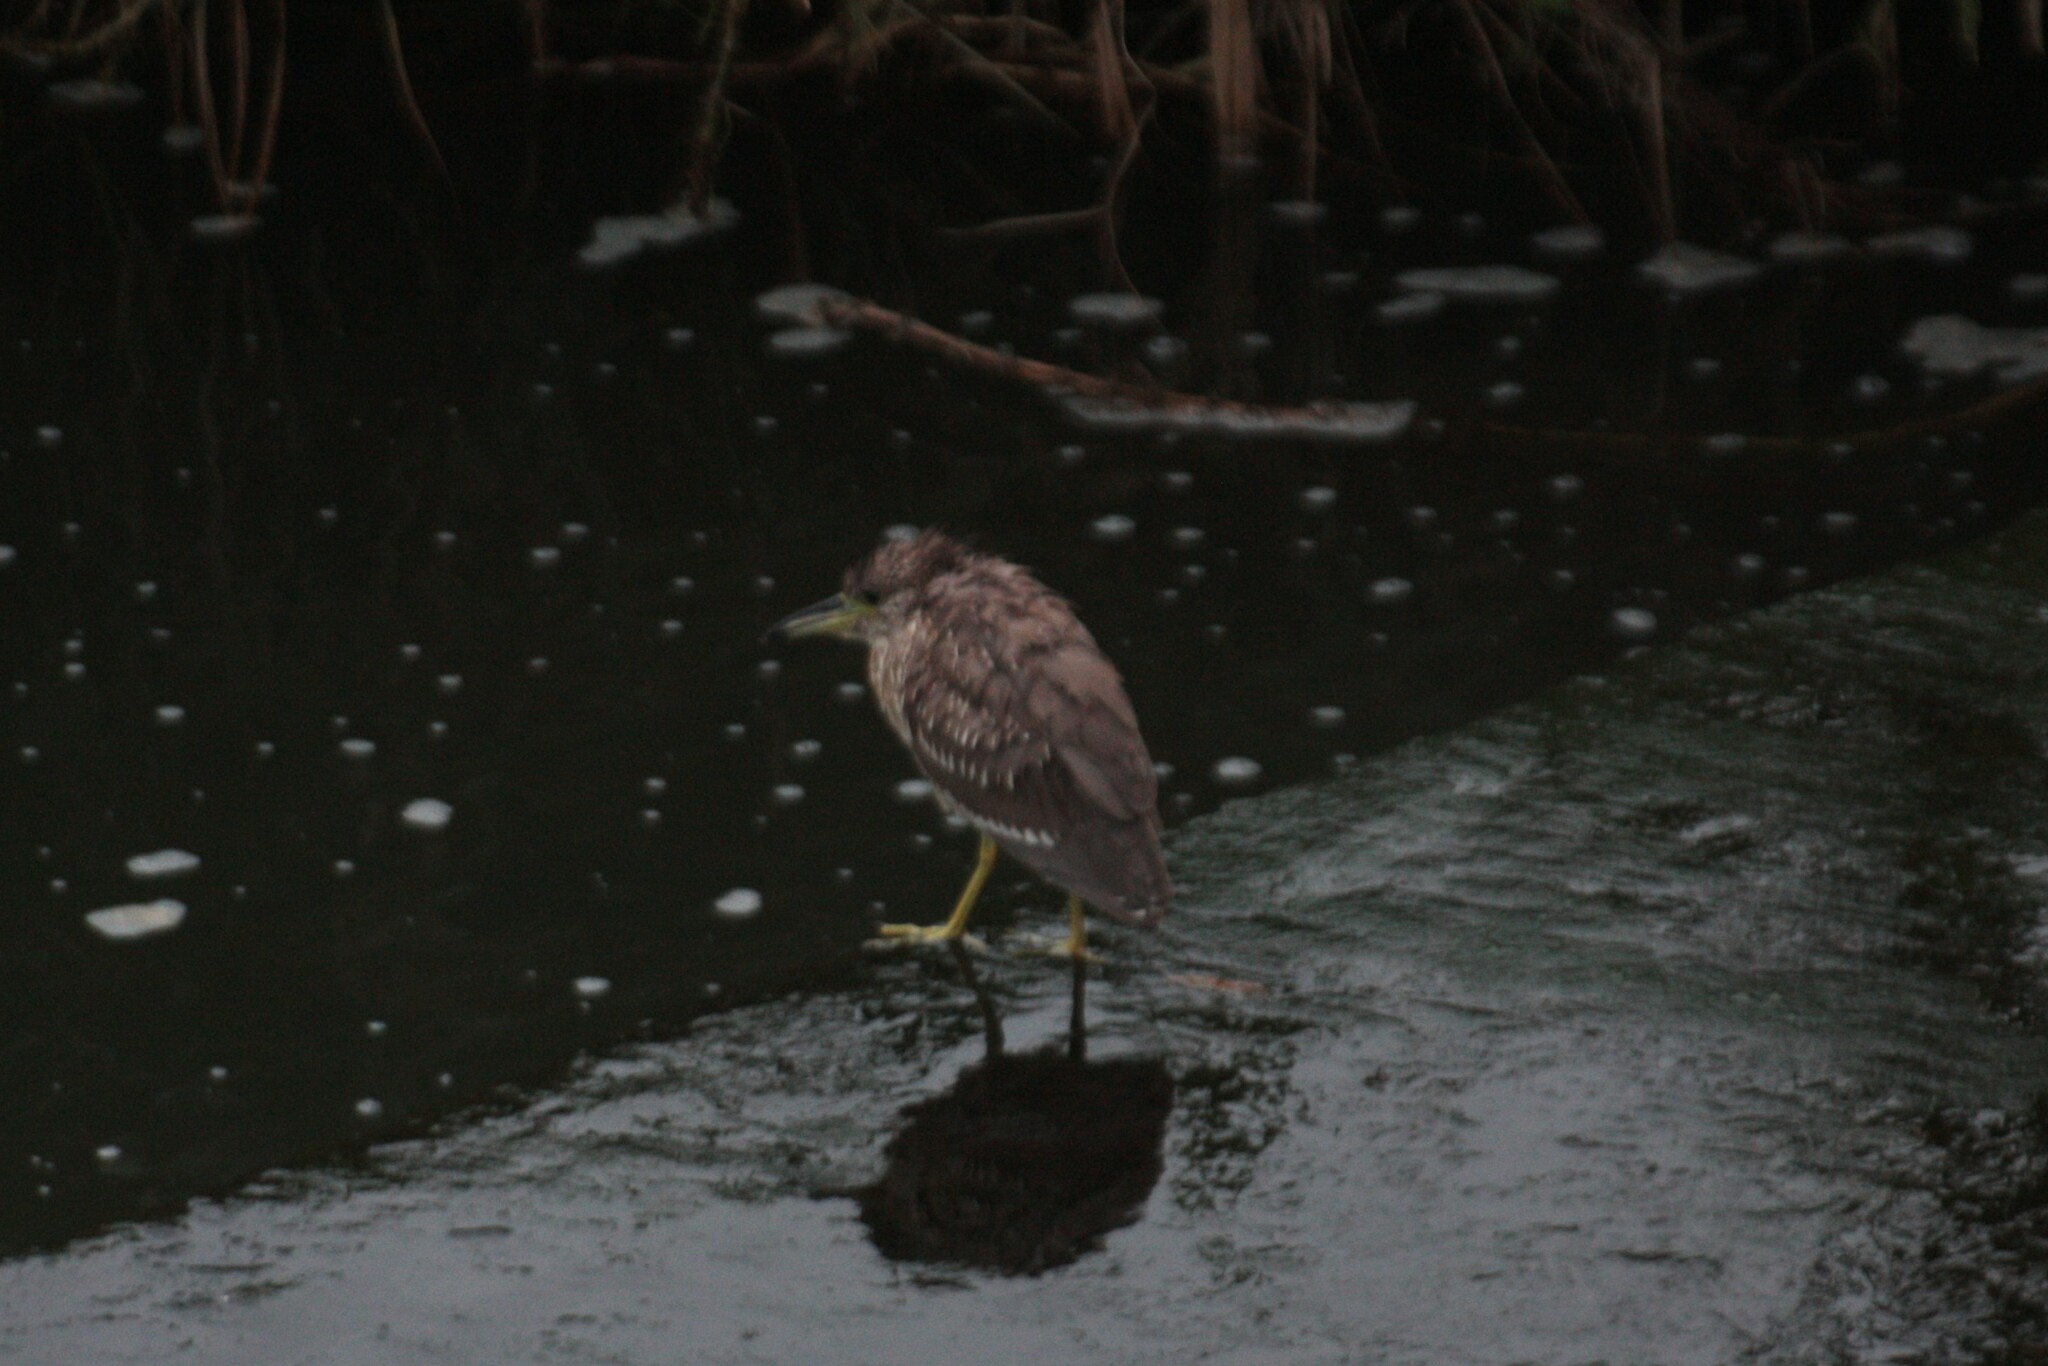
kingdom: Animalia
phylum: Chordata
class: Aves
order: Pelecaniformes
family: Ardeidae
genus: Nycticorax
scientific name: Nycticorax nycticorax
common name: Black-crowned night heron
